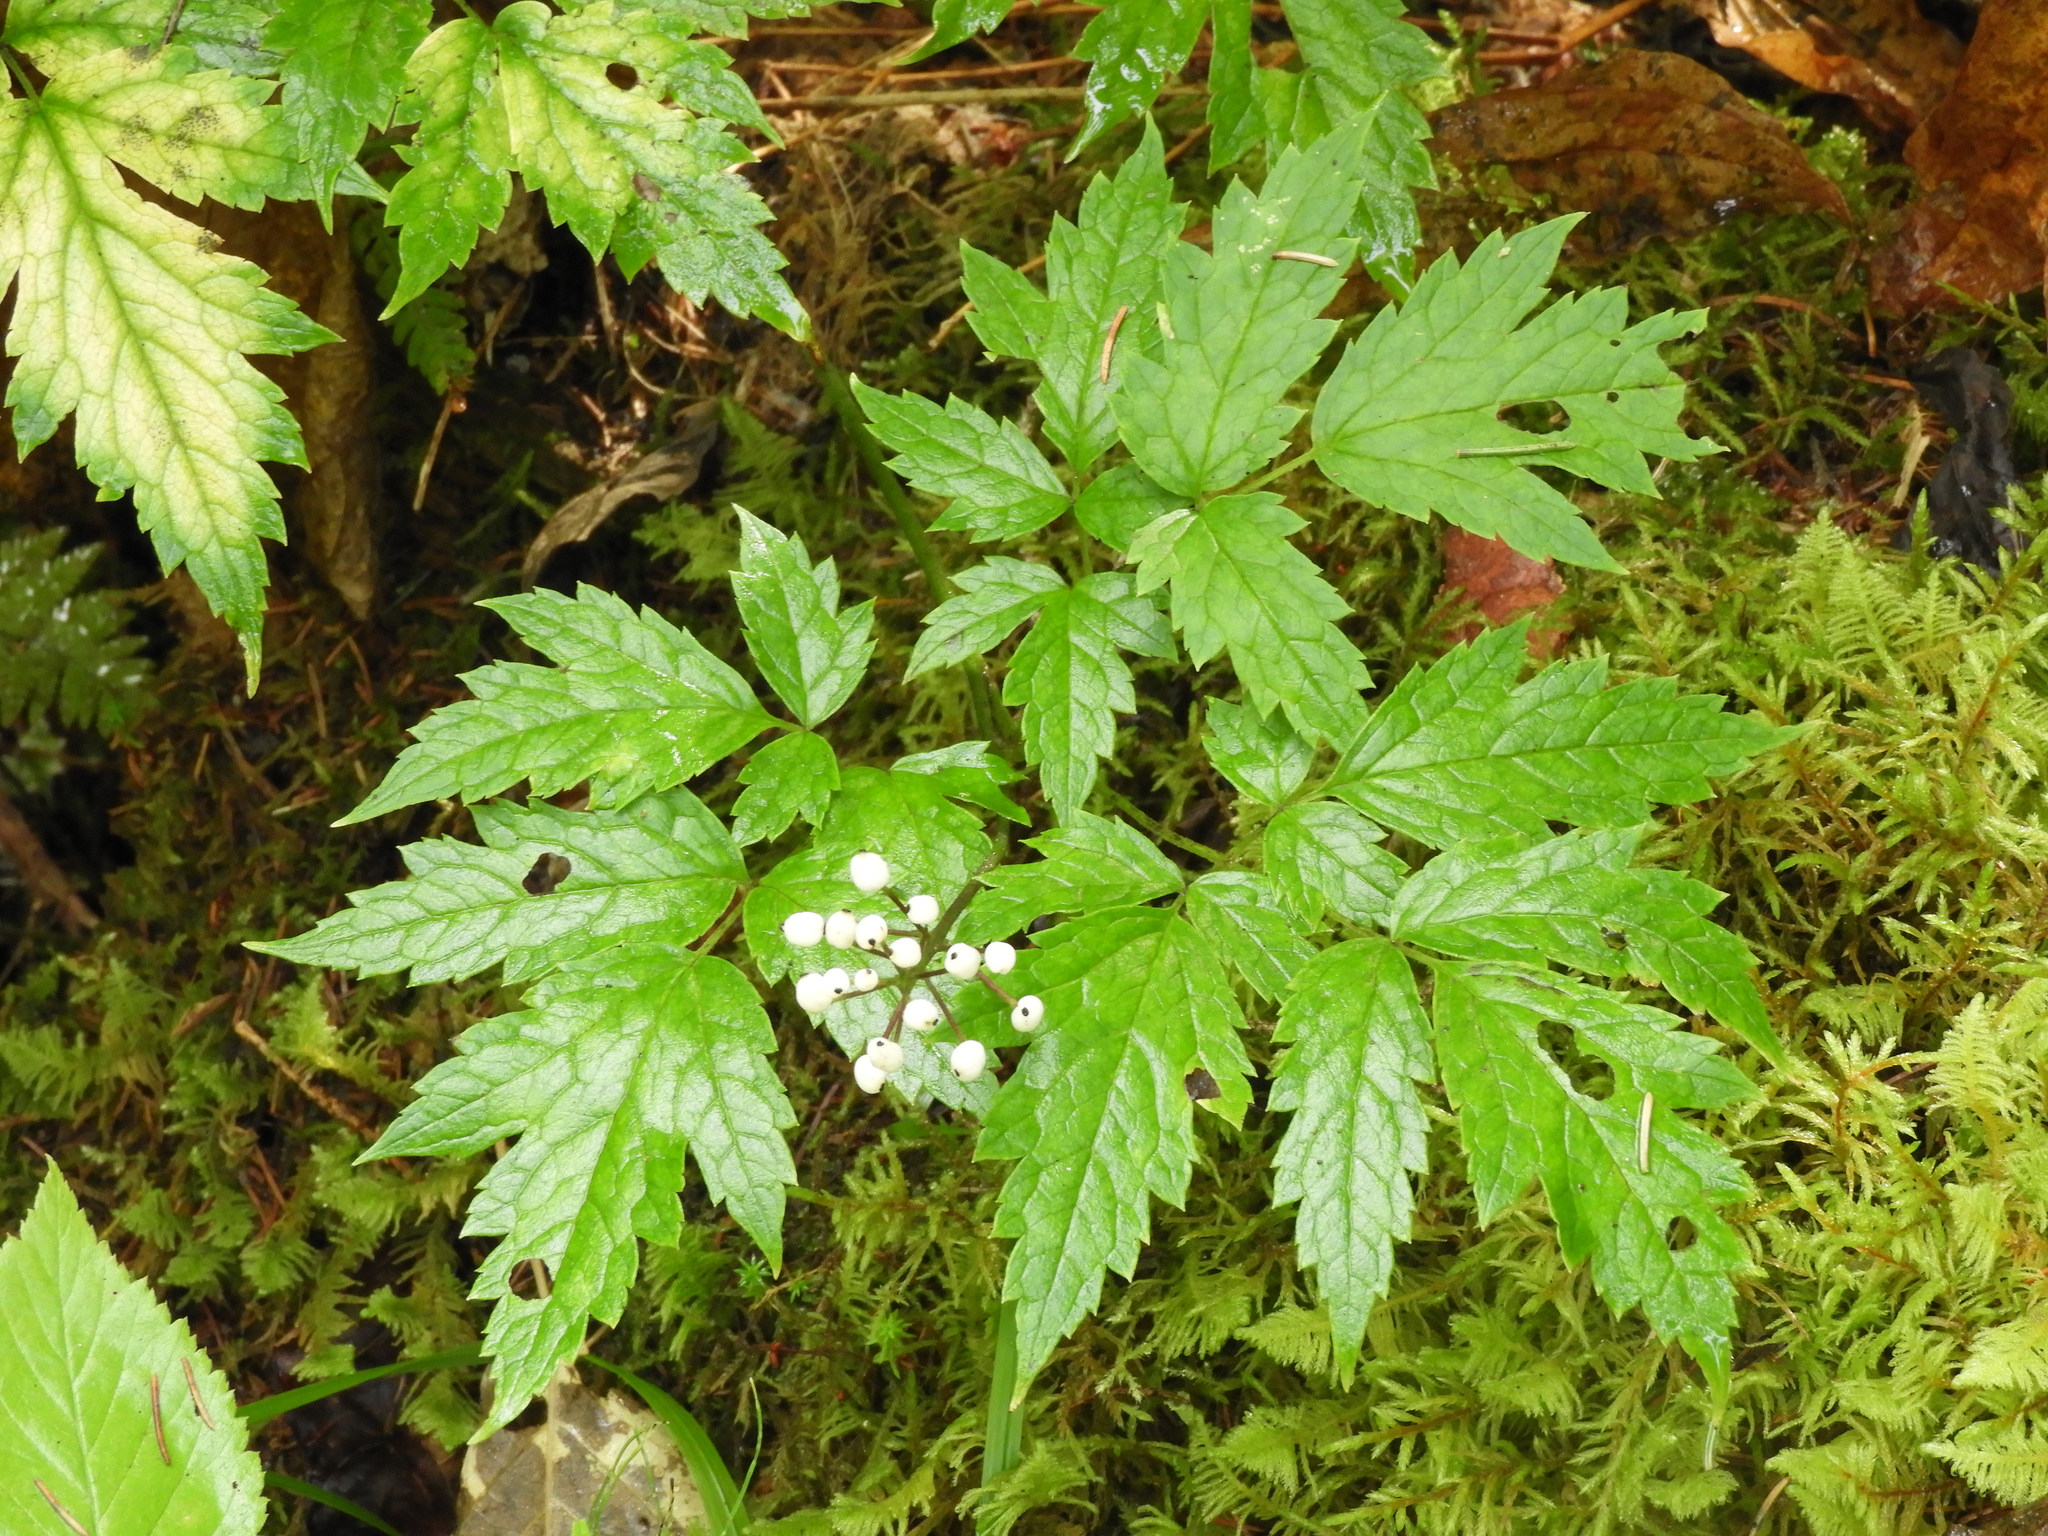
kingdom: Plantae
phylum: Tracheophyta
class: Magnoliopsida
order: Ranunculales
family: Ranunculaceae
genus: Actaea
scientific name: Actaea rubra
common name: Red baneberry
